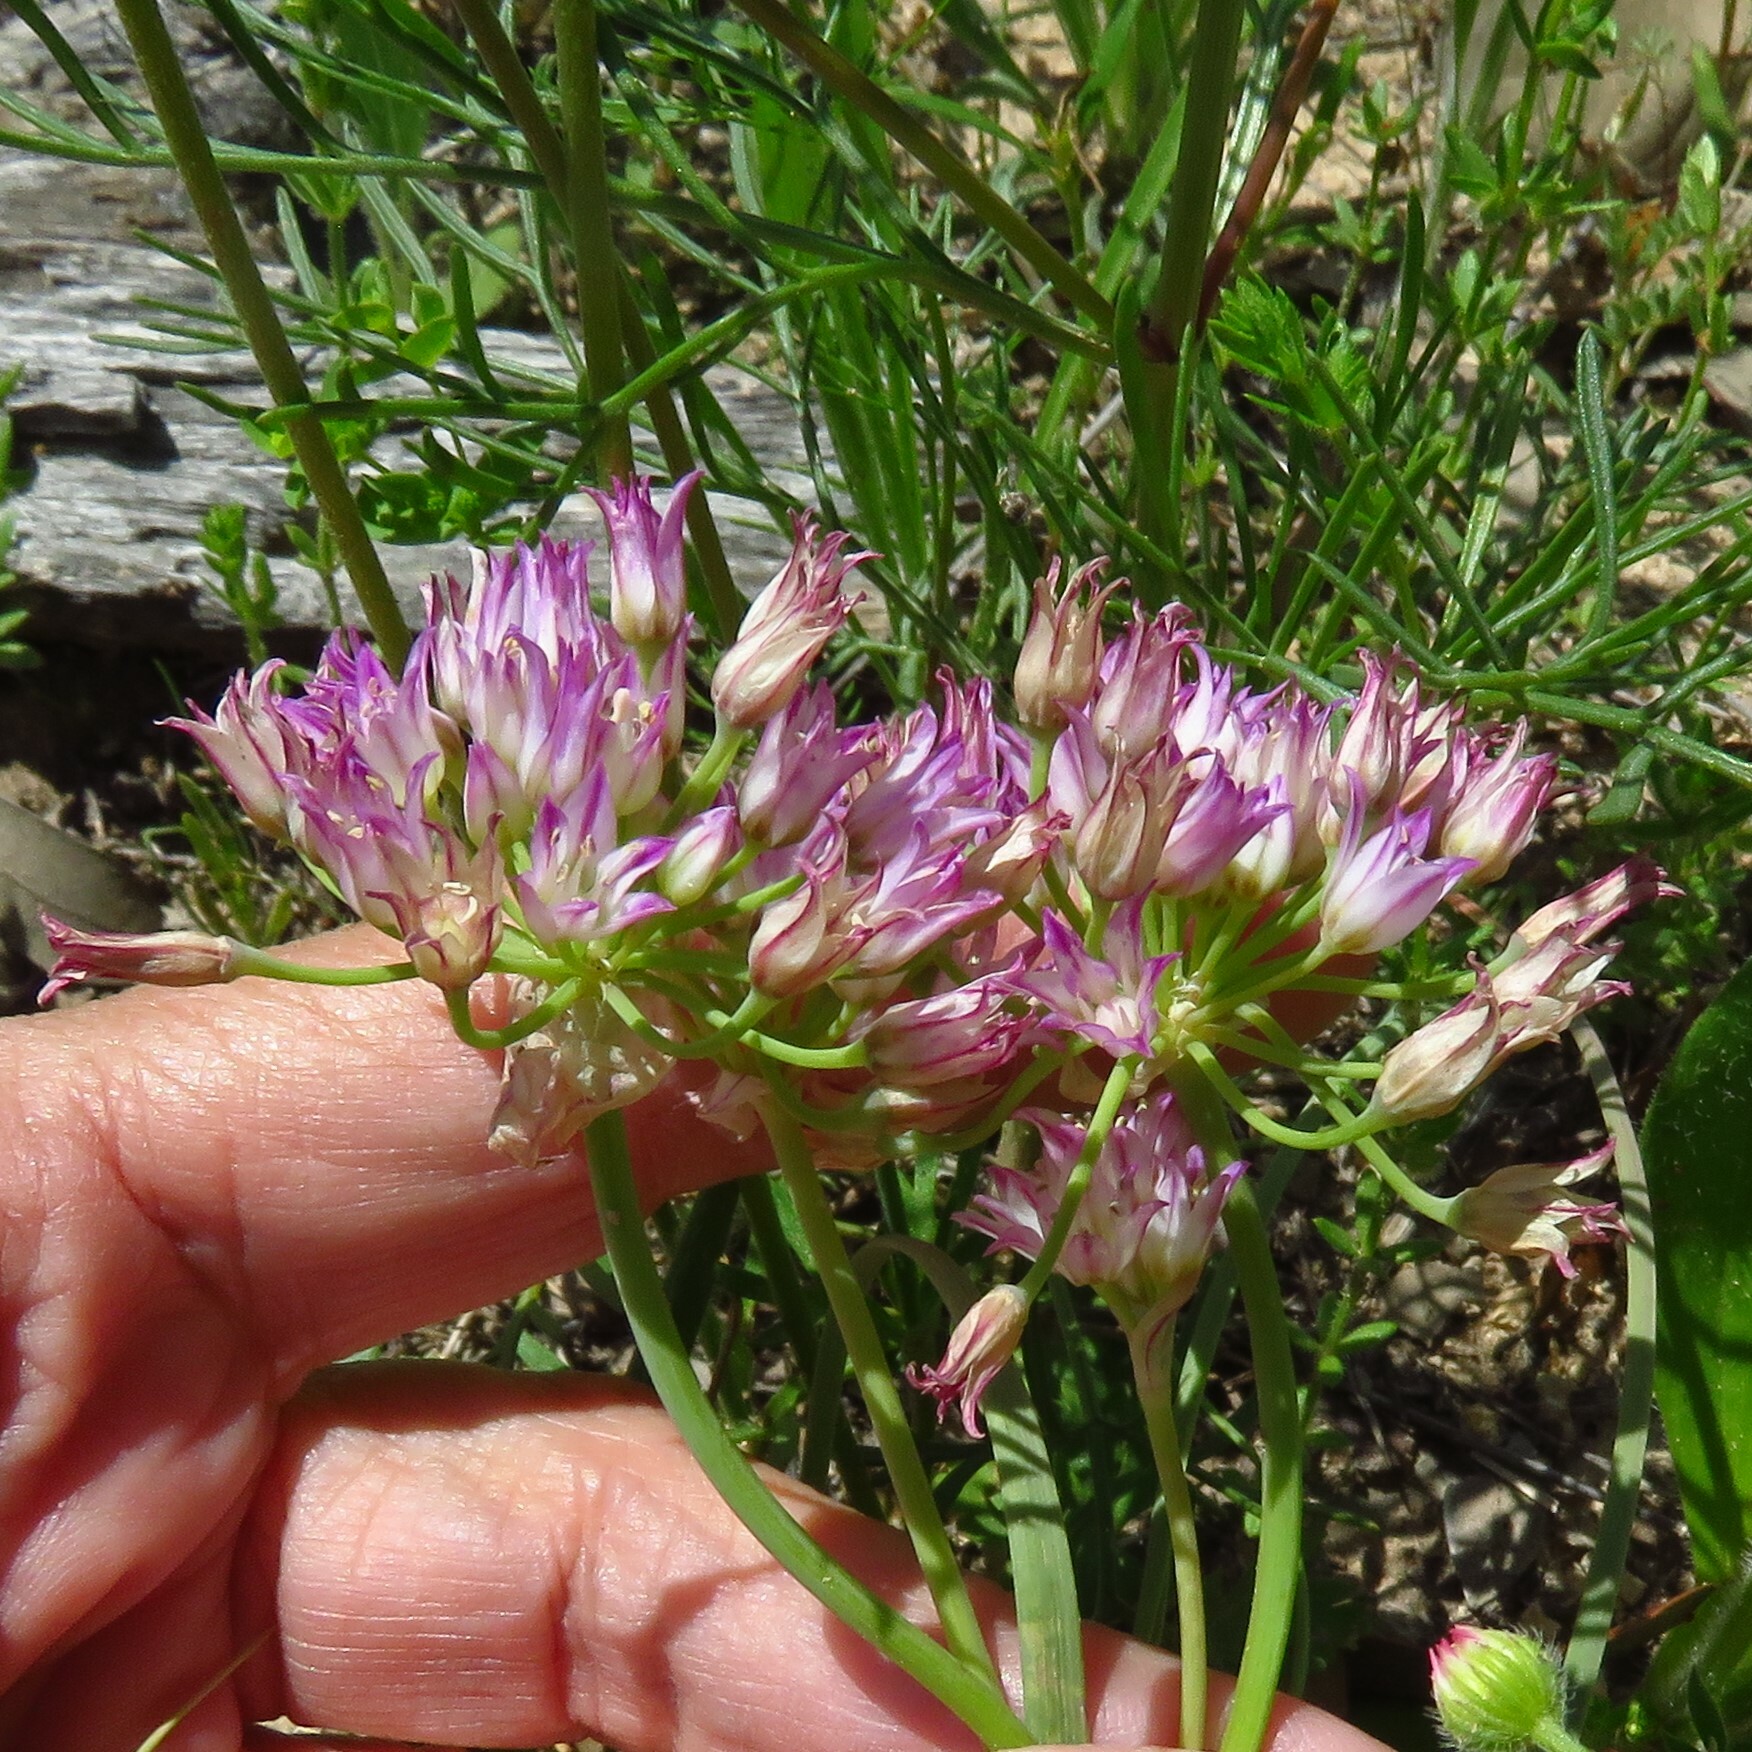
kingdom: Plantae
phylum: Tracheophyta
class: Liliopsida
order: Asparagales
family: Amaryllidaceae
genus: Allium
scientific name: Allium drummondii
